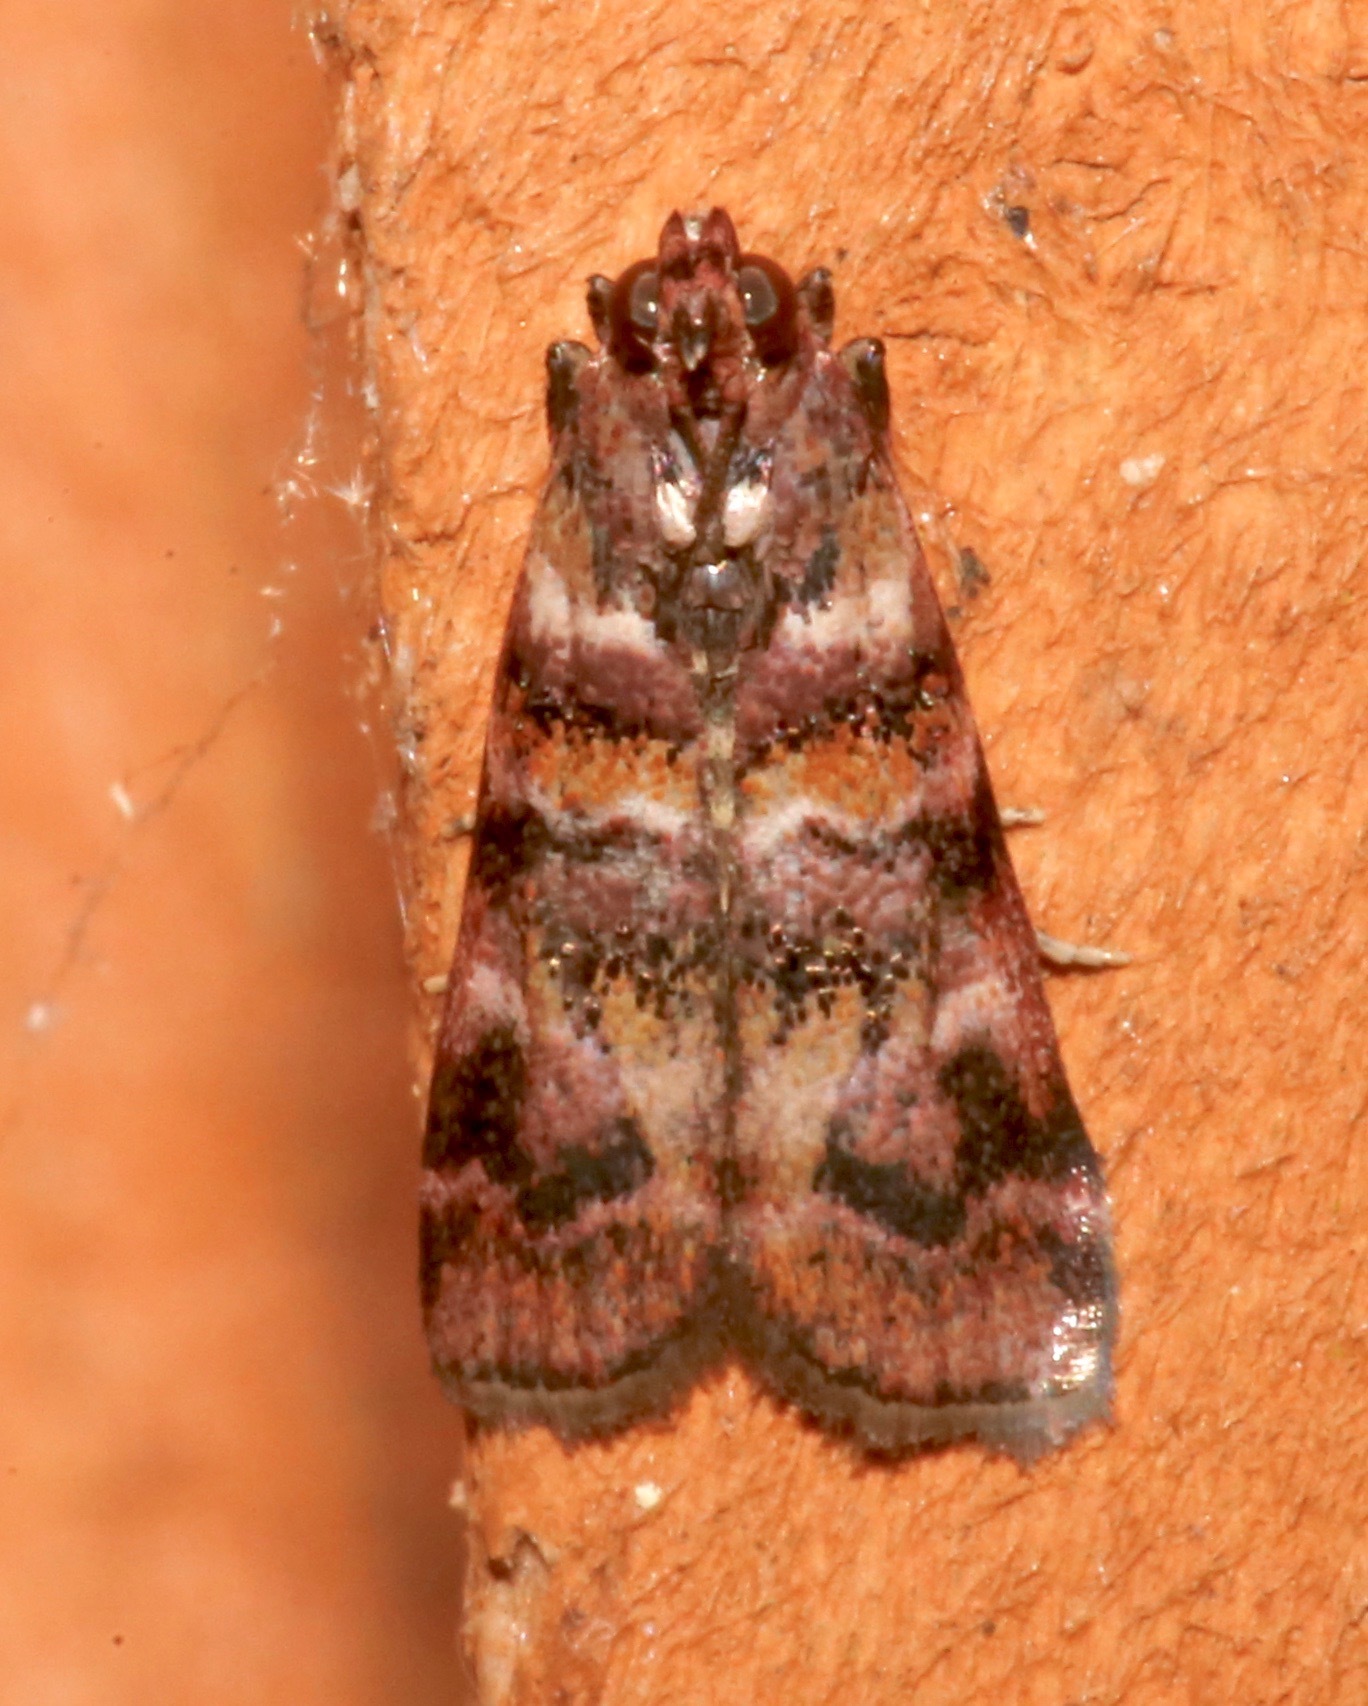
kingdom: Animalia
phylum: Arthropoda
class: Insecta
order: Lepidoptera
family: Pyralidae
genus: Dioryctria
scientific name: Dioryctria pygmaeella
